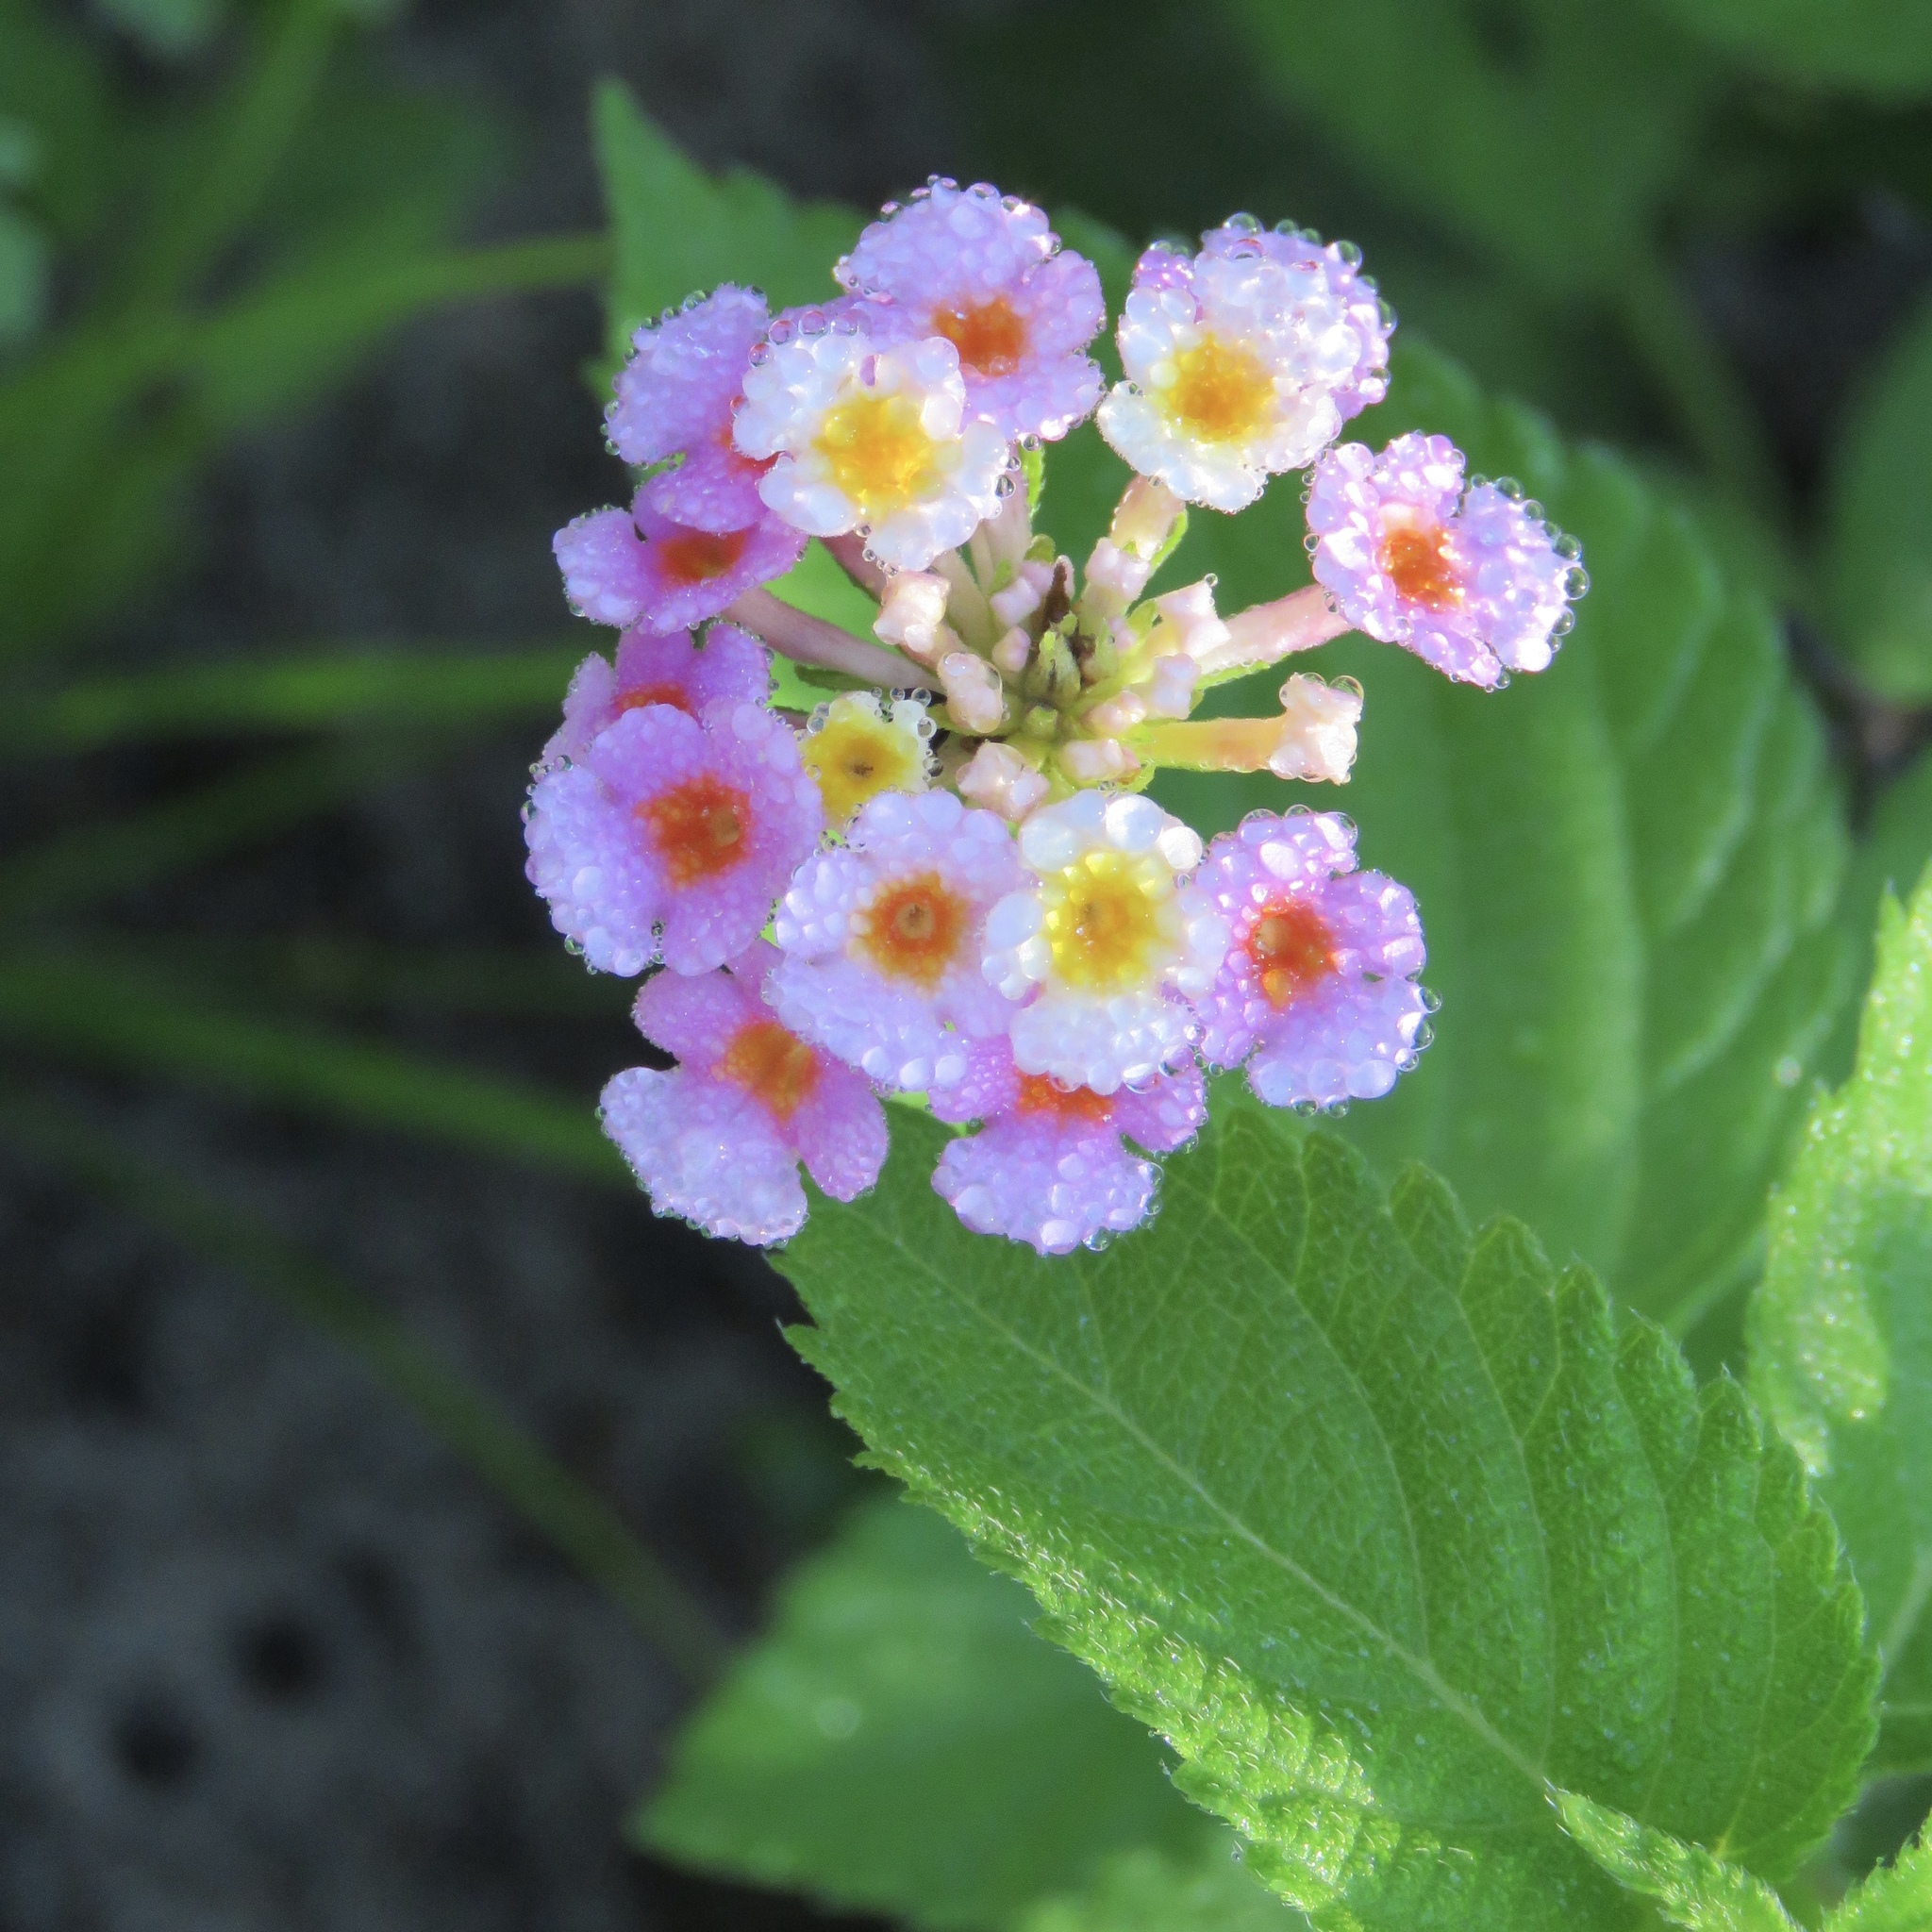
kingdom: Plantae
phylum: Tracheophyta
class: Magnoliopsida
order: Lamiales
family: Verbenaceae
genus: Lantana
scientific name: Lantana strigocamara
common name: Lantana
